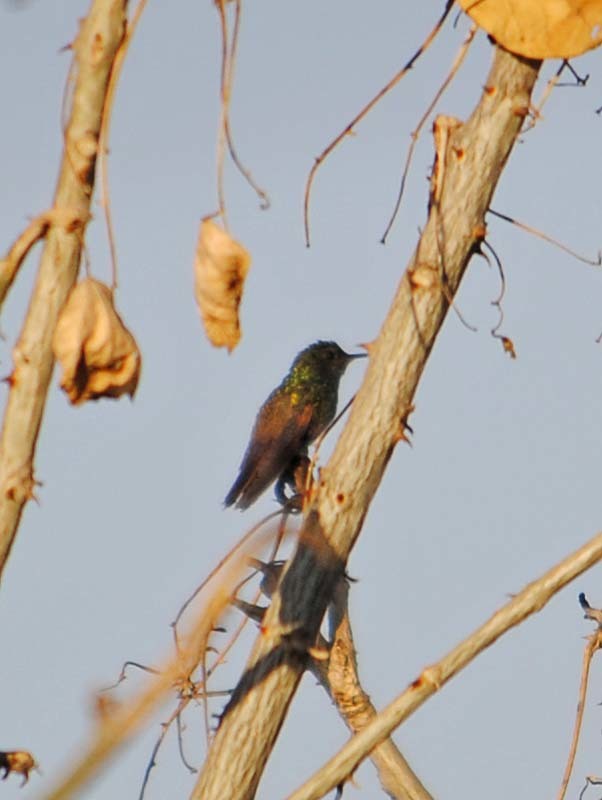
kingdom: Animalia
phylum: Chordata
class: Aves
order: Apodiformes
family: Trochilidae
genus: Saucerottia
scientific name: Saucerottia beryllina
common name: Berylline hummingbird
